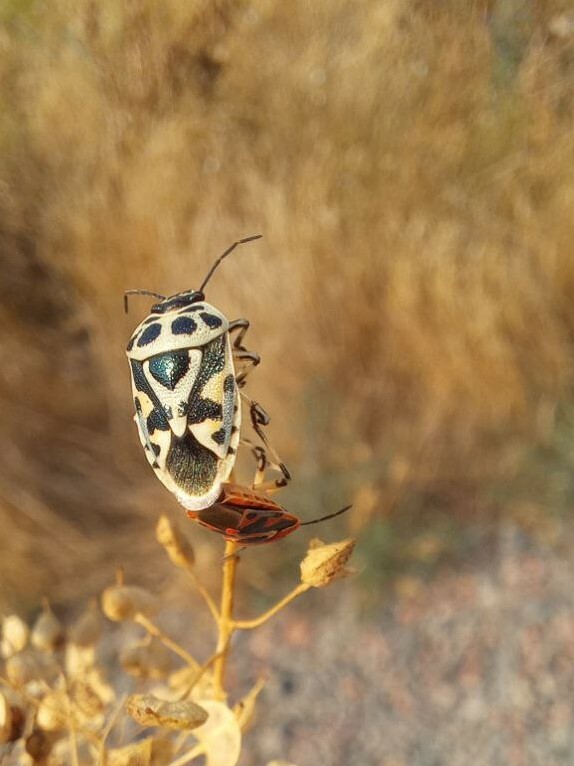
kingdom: Animalia
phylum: Arthropoda
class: Insecta
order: Hemiptera
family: Pentatomidae
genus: Eurydema
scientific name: Eurydema ornata
